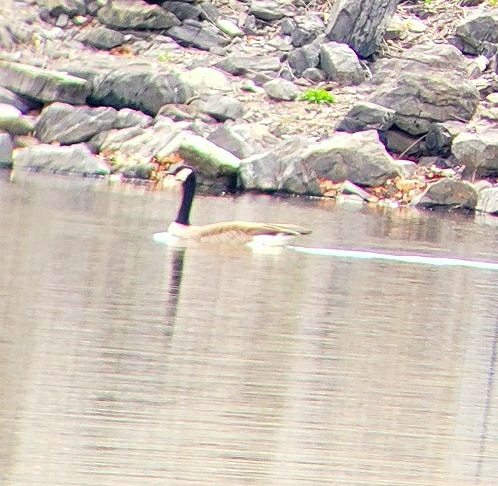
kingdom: Animalia
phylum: Chordata
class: Aves
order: Anseriformes
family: Anatidae
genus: Branta
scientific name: Branta canadensis
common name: Canada goose
